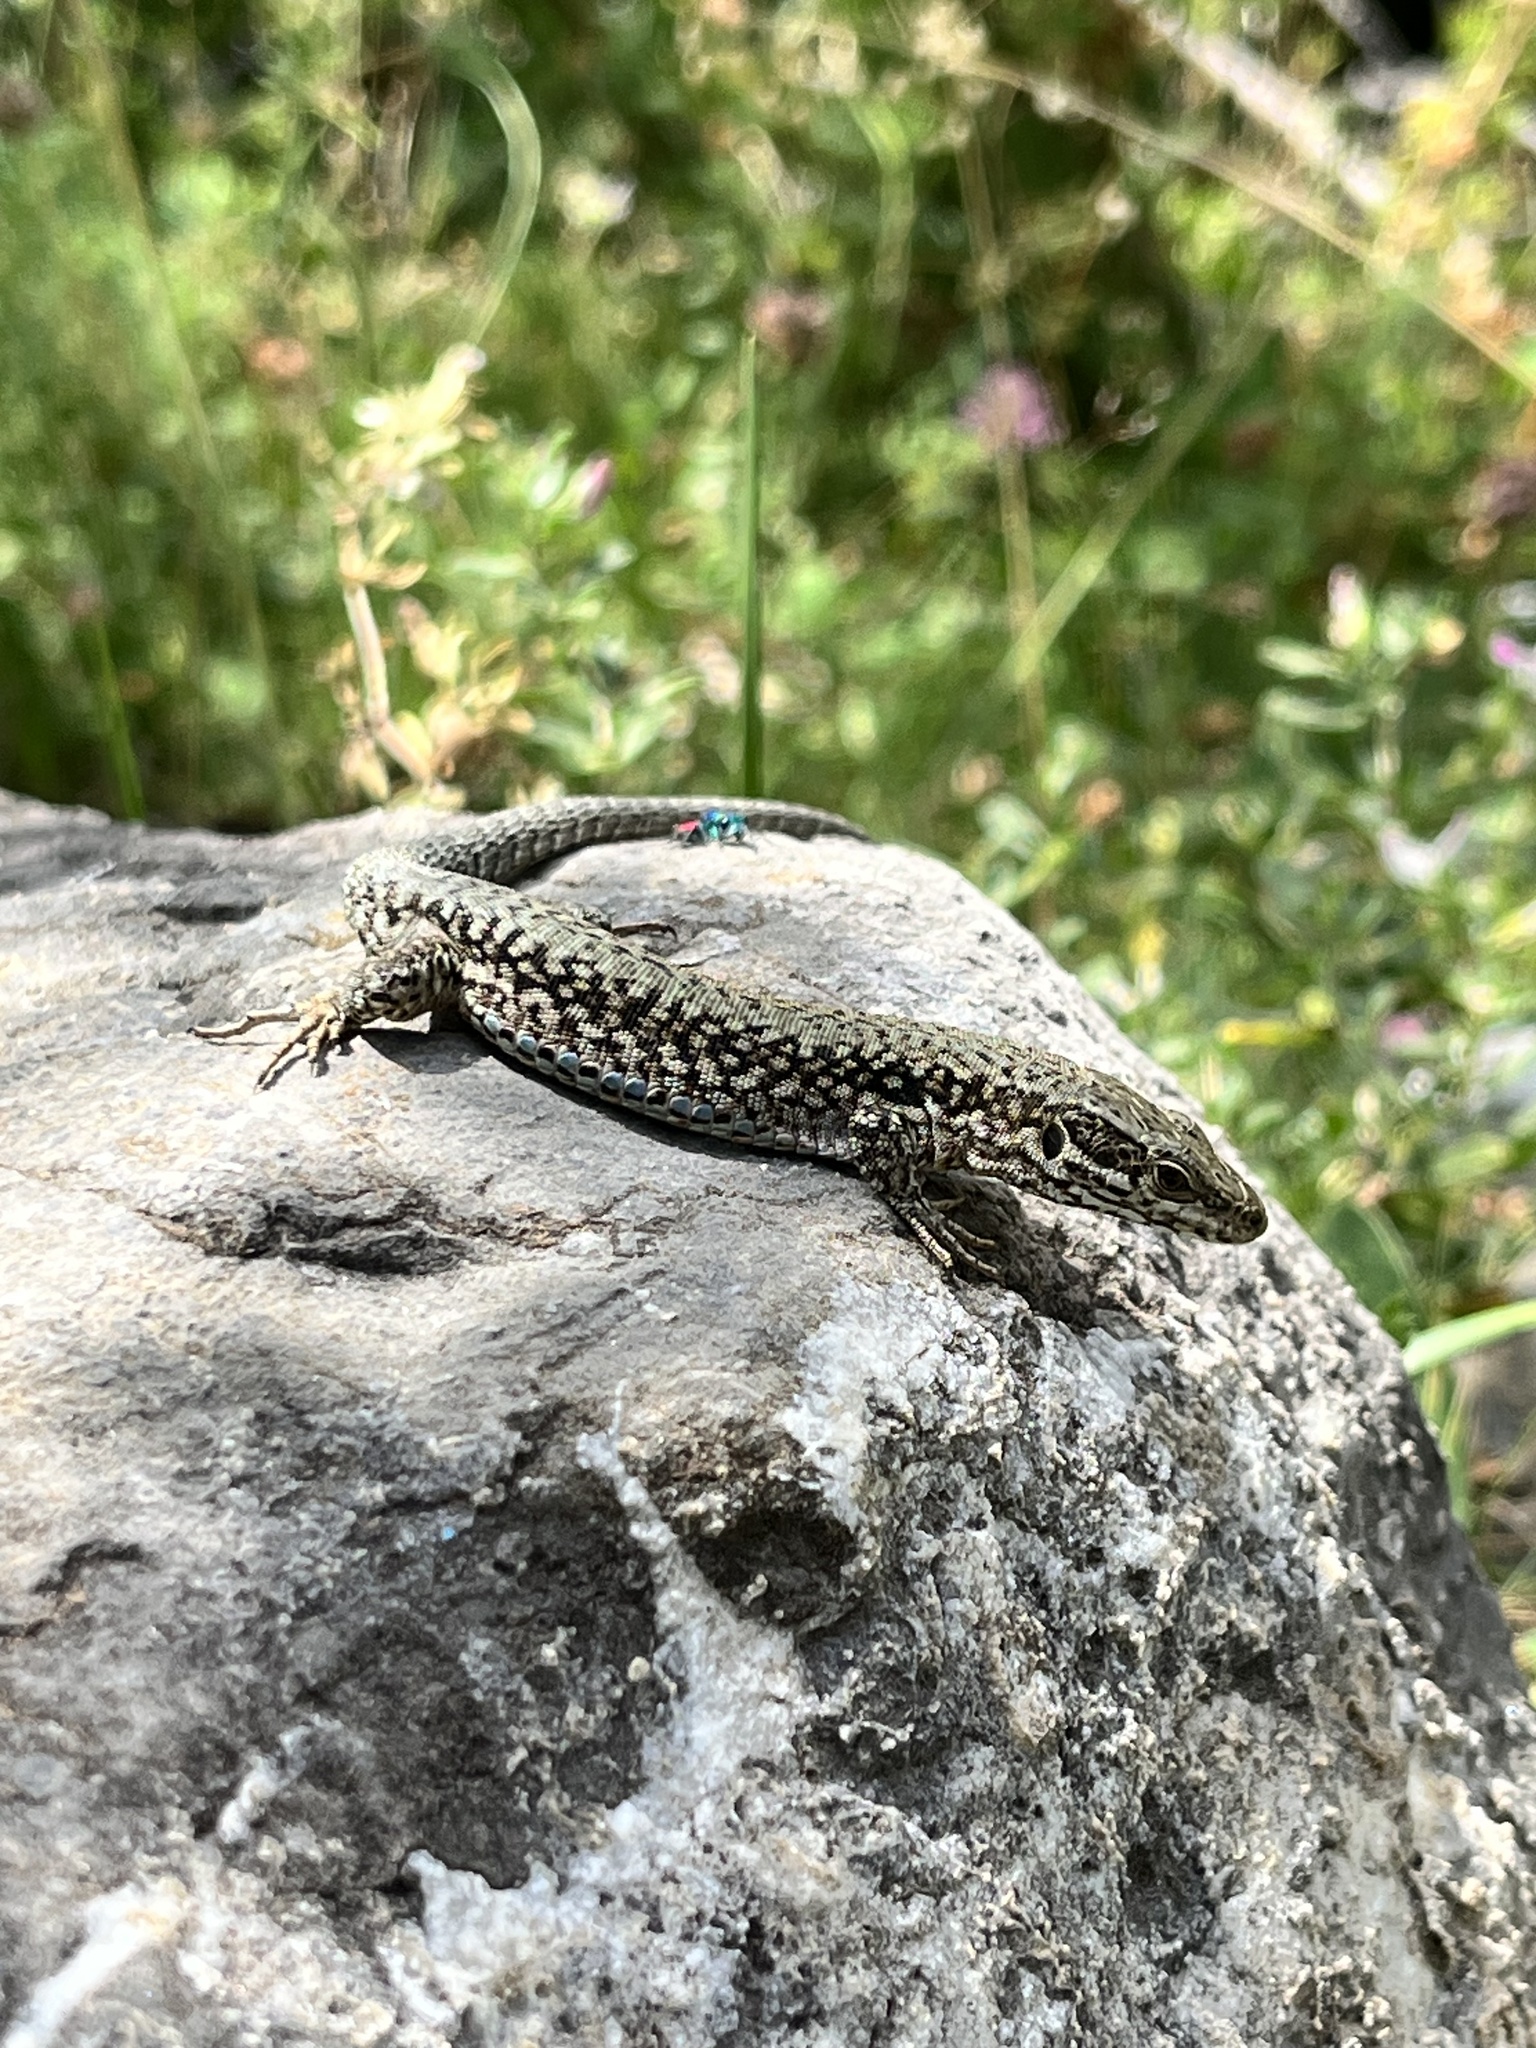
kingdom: Animalia
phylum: Chordata
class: Squamata
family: Lacertidae
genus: Podarcis
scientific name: Podarcis muralis
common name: Common wall lizard
